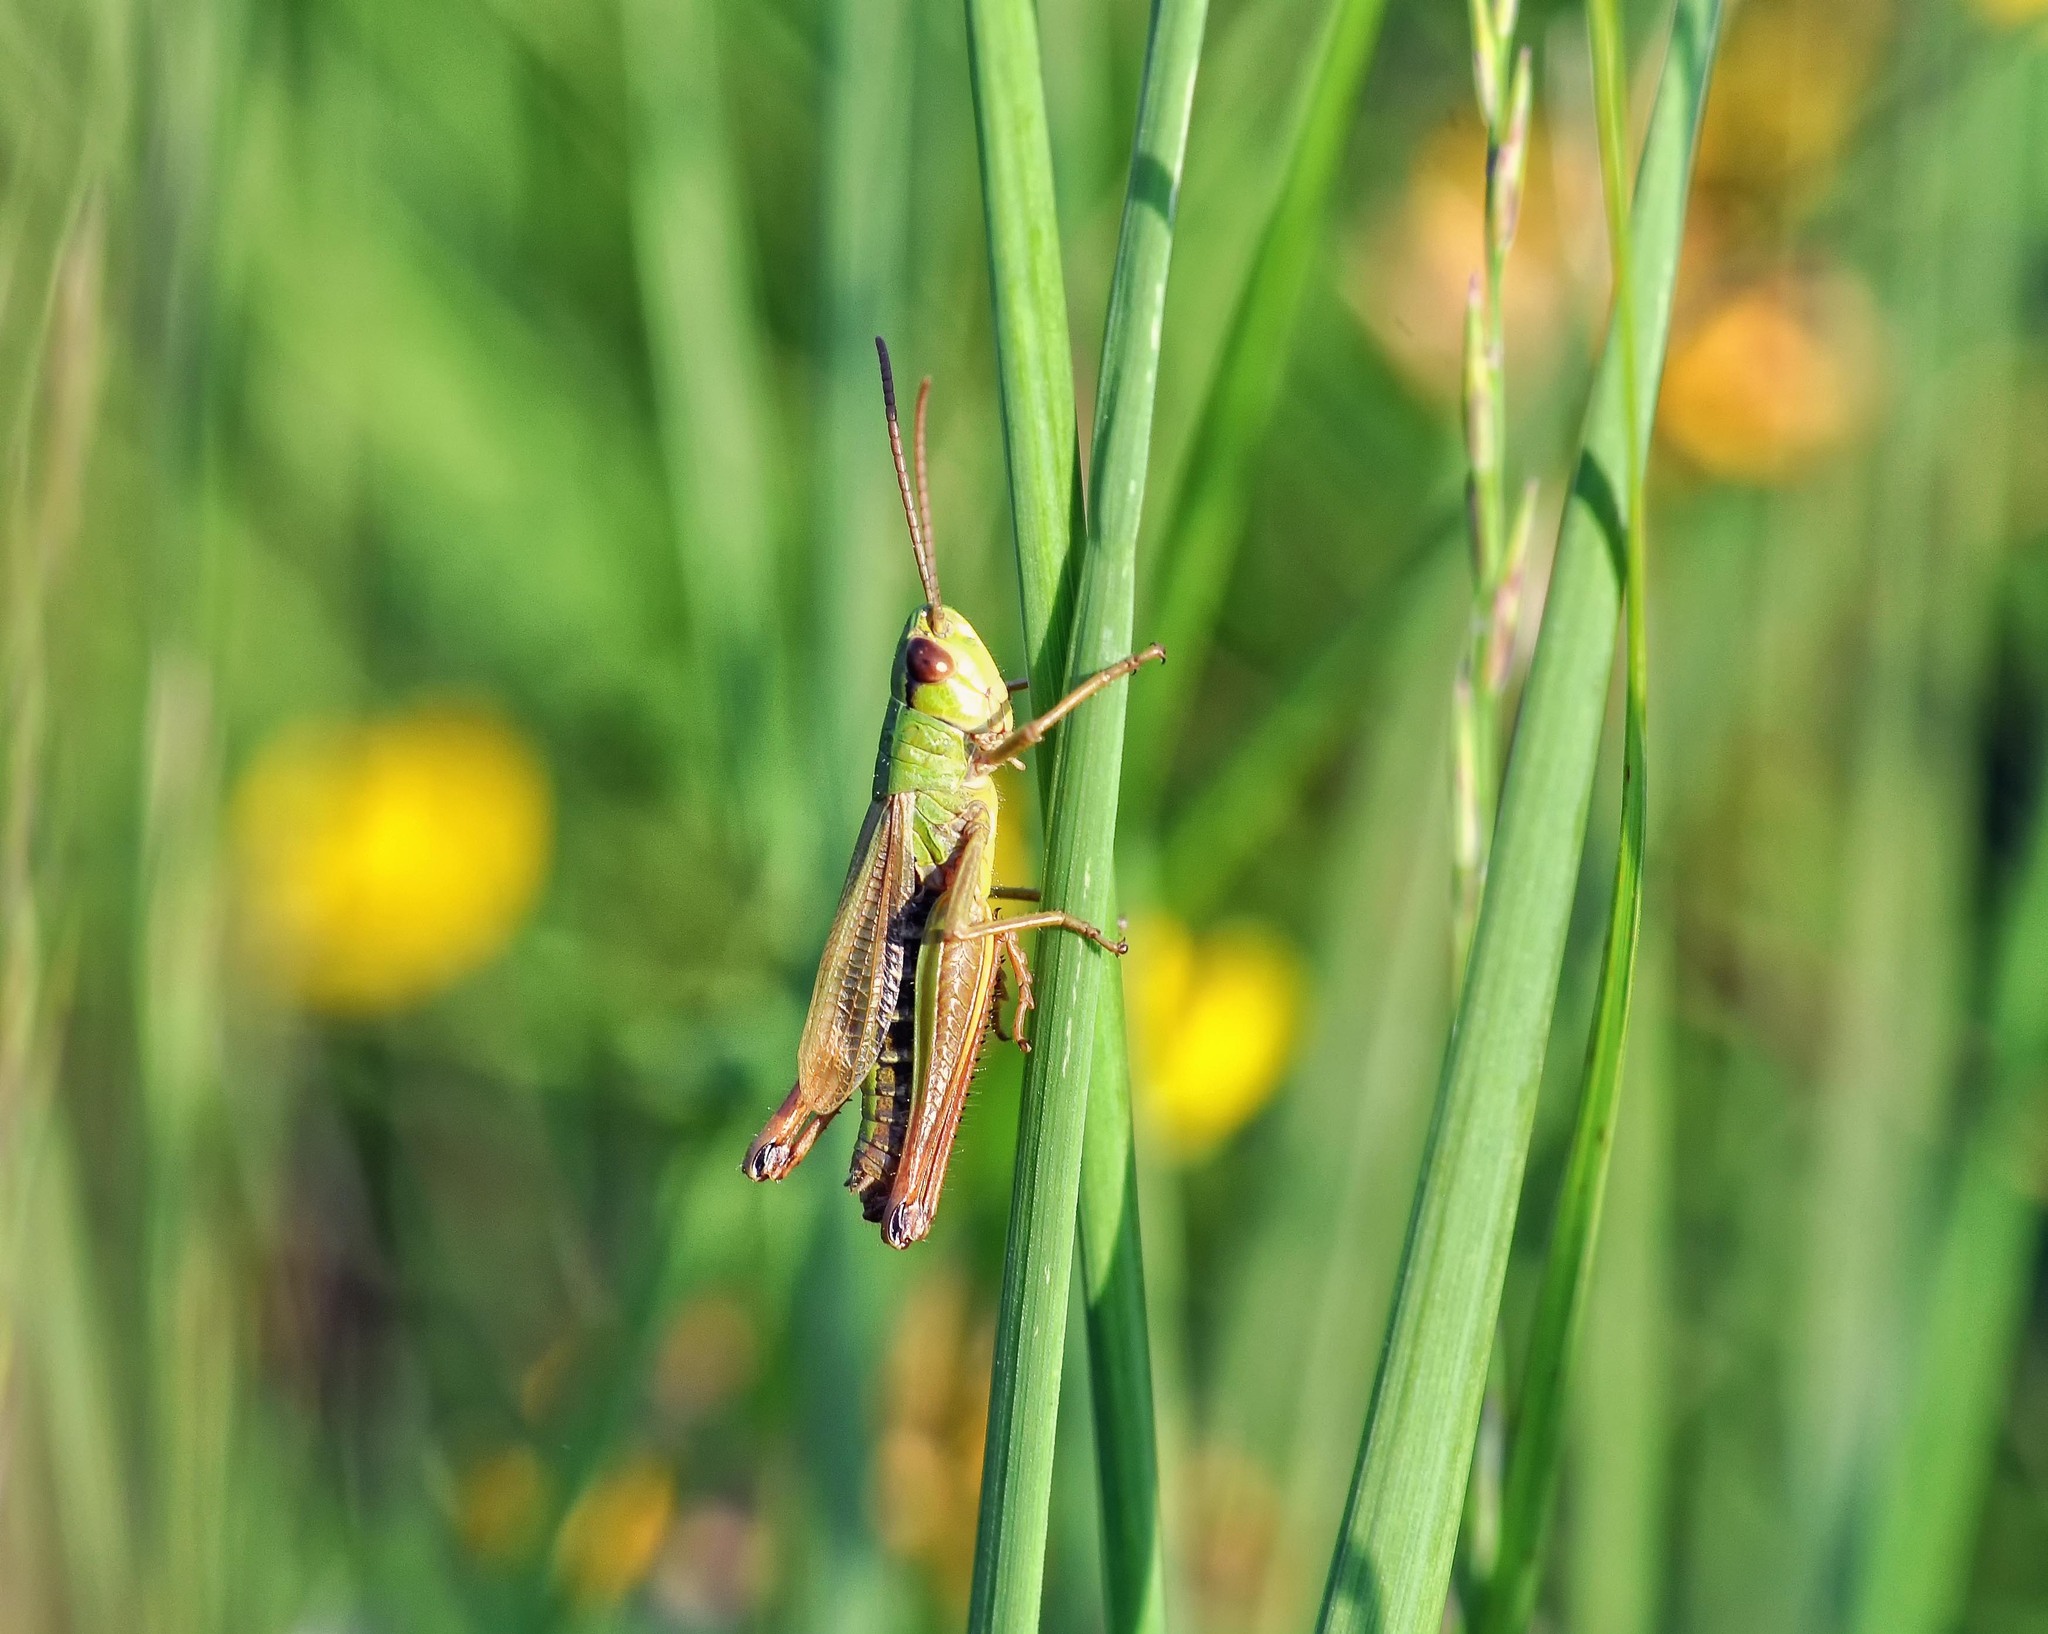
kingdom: Animalia
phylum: Arthropoda
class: Insecta
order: Orthoptera
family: Acrididae
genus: Pseudochorthippus
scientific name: Pseudochorthippus parallelus
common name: Meadow grasshopper
